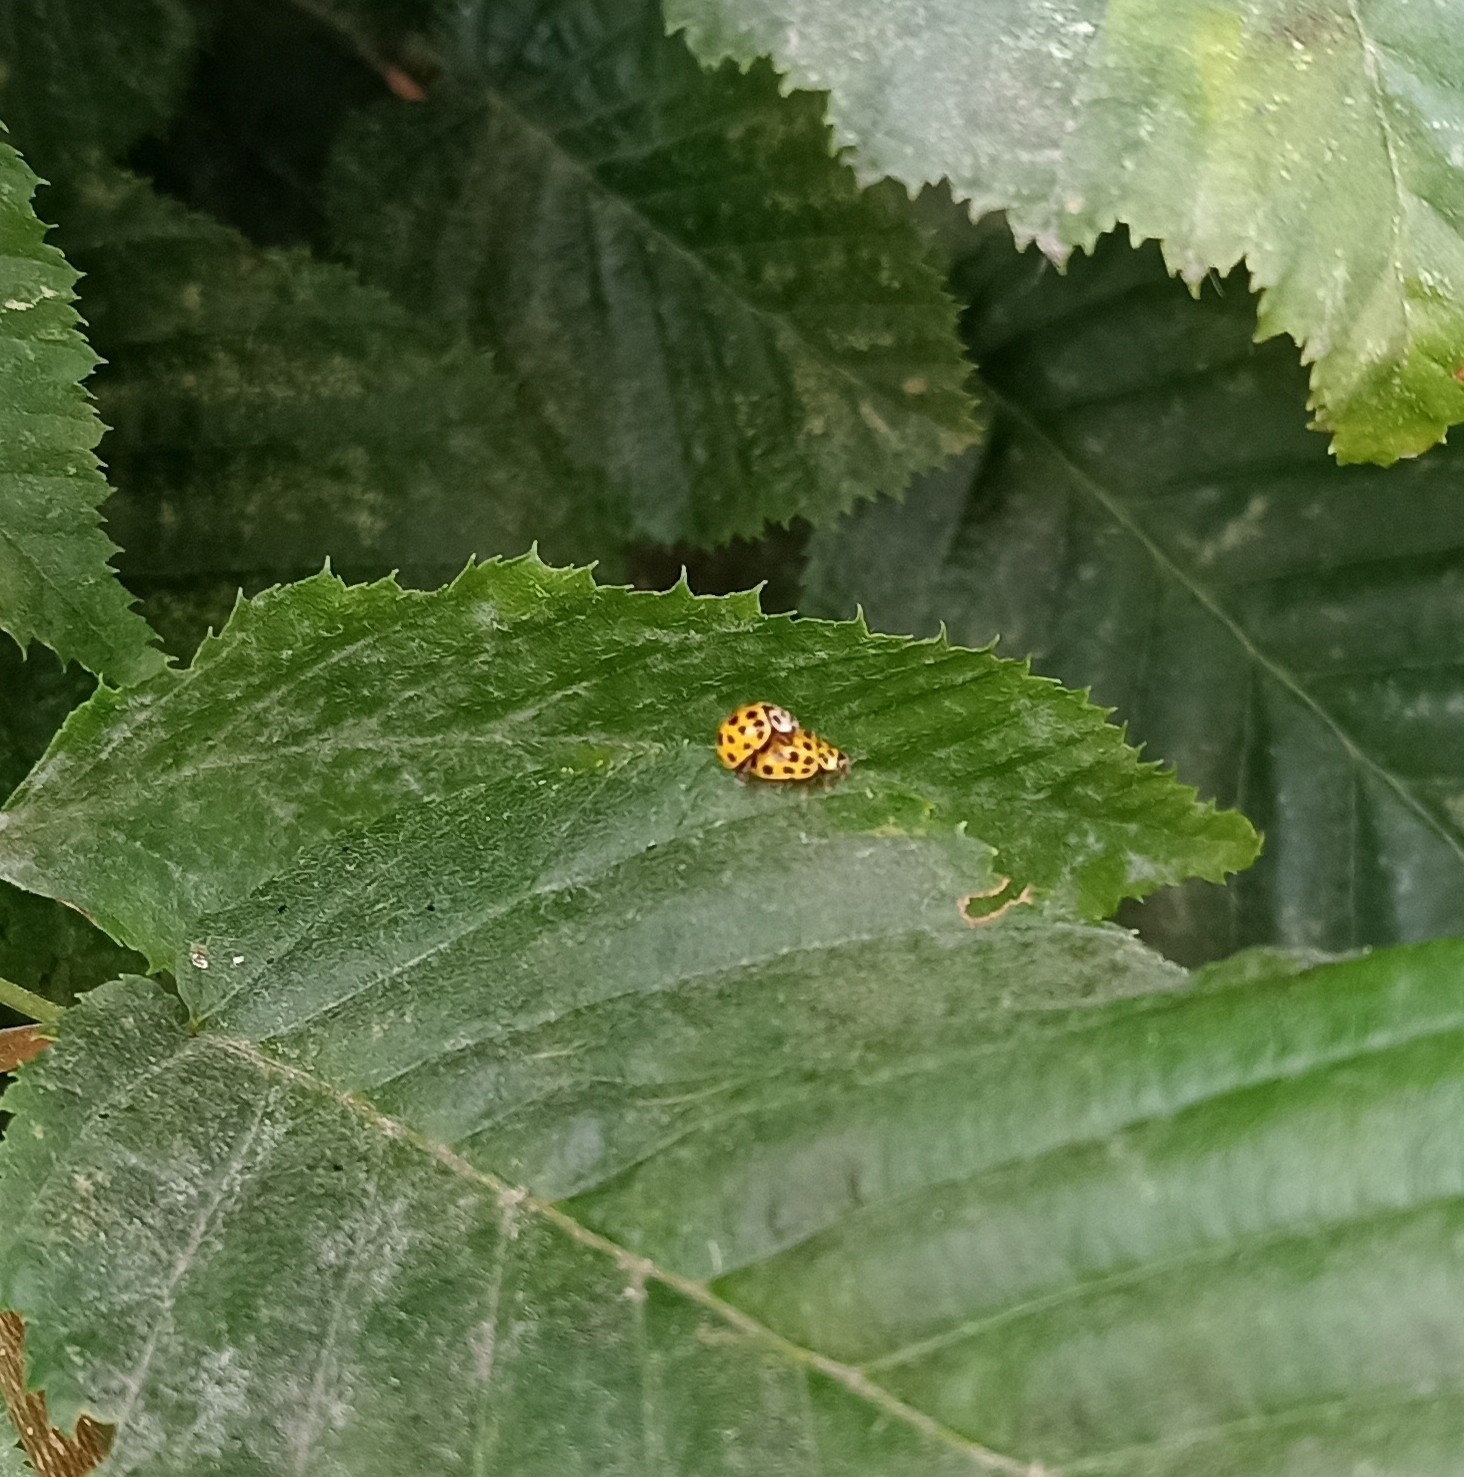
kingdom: Animalia
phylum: Arthropoda
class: Insecta
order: Coleoptera
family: Coccinellidae
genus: Psyllobora
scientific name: Psyllobora vigintiduopunctata
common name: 22-spot ladybird
